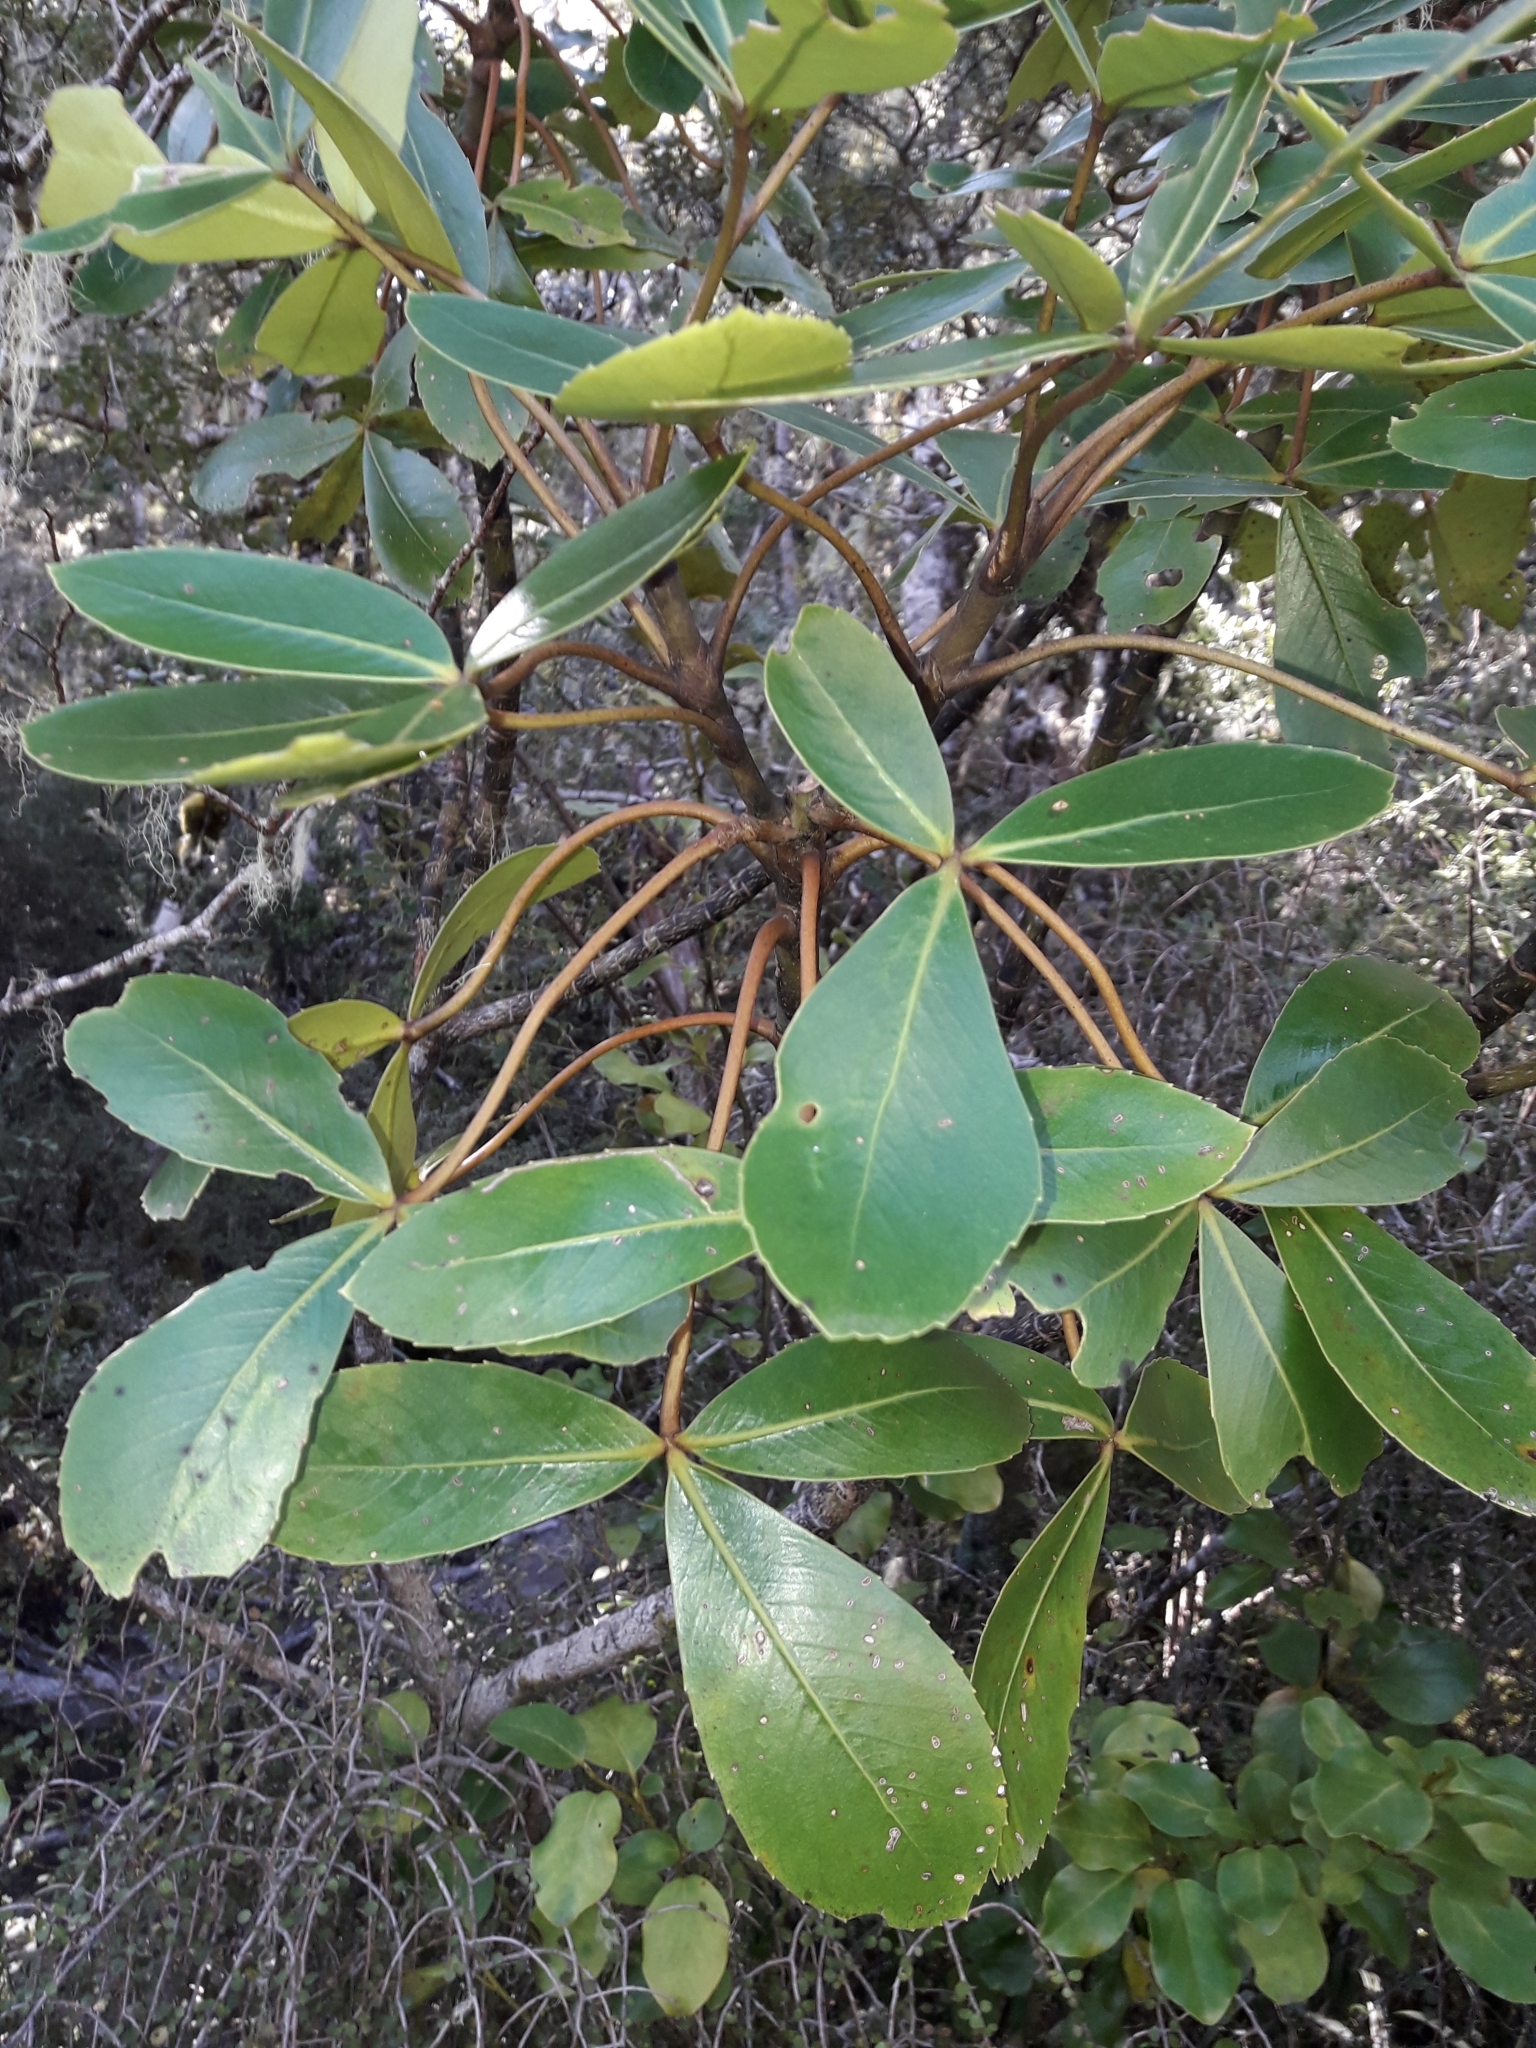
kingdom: Plantae
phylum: Tracheophyta
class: Magnoliopsida
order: Apiales
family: Araliaceae
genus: Neopanax
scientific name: Neopanax colensoi
